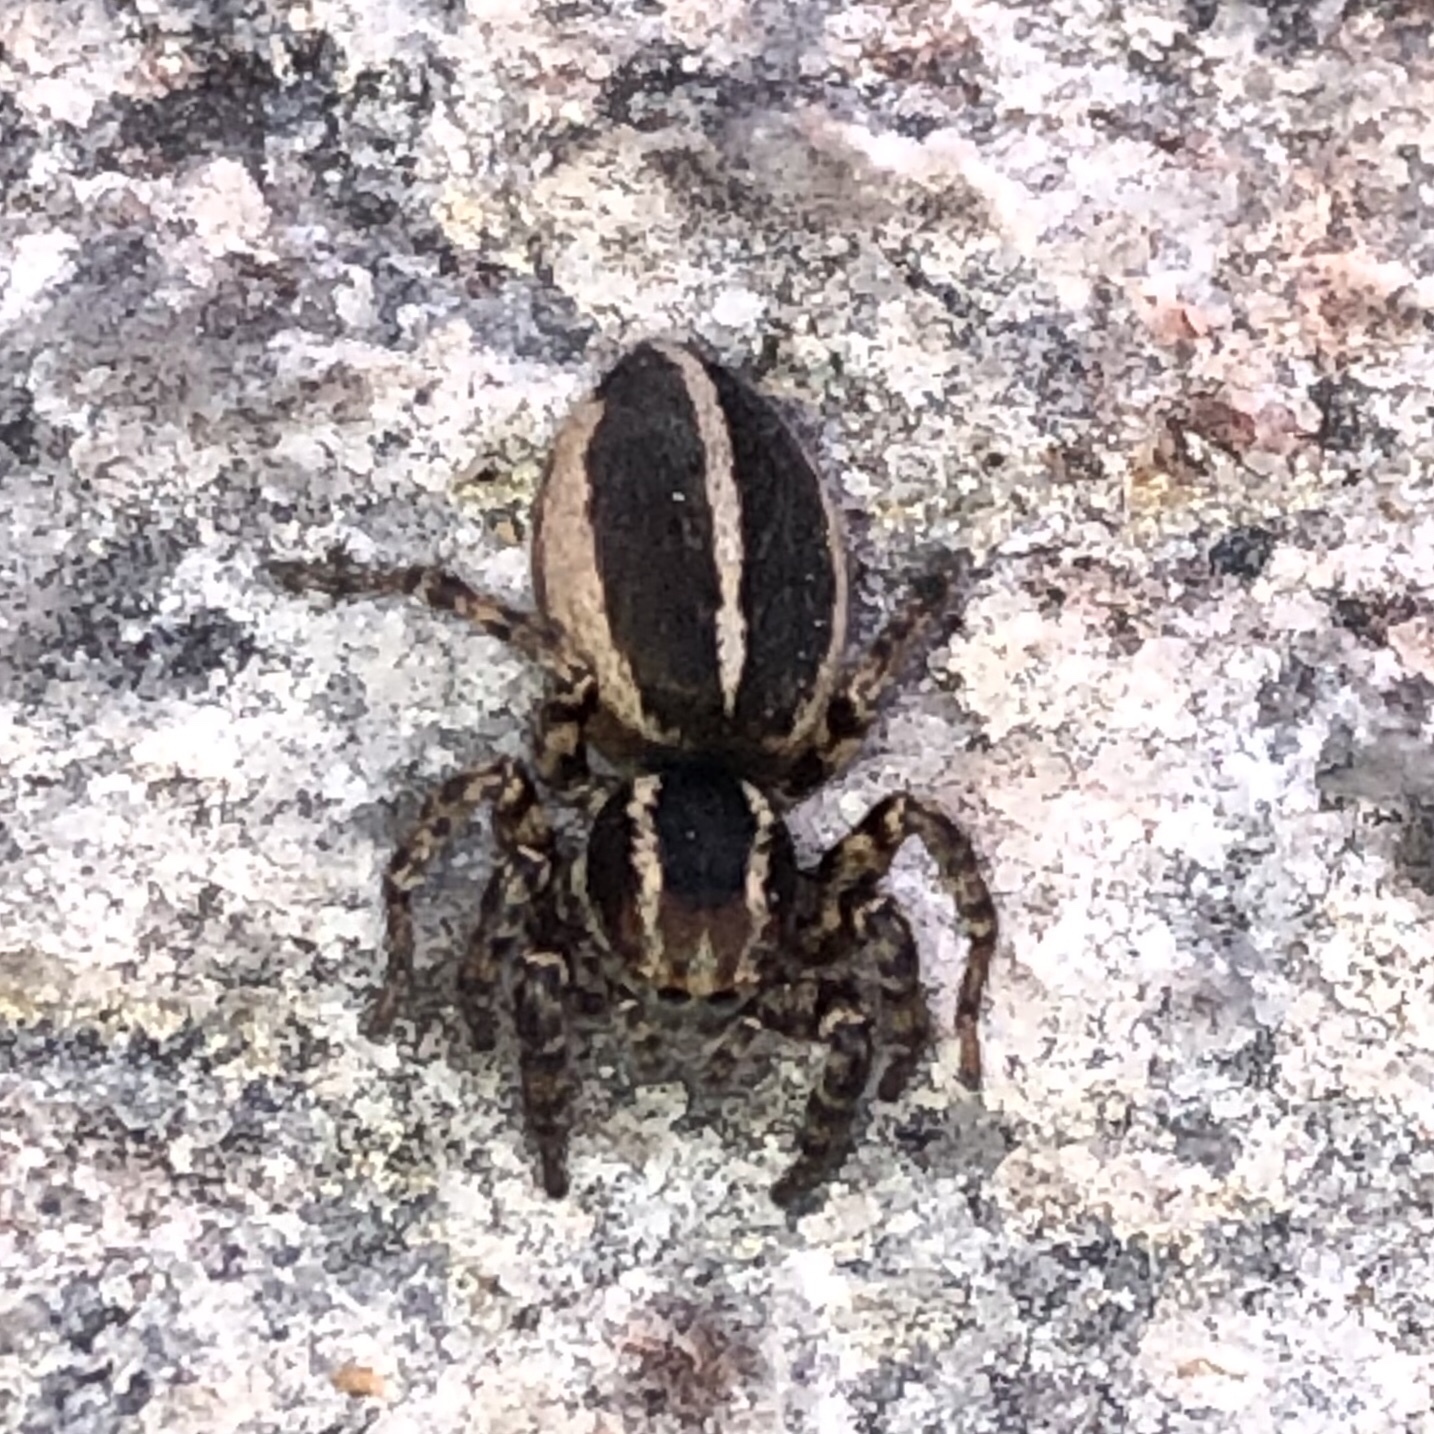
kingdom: Animalia
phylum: Arthropoda
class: Arachnida
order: Araneae
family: Salticidae
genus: Phlegra
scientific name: Phlegra hentzi
